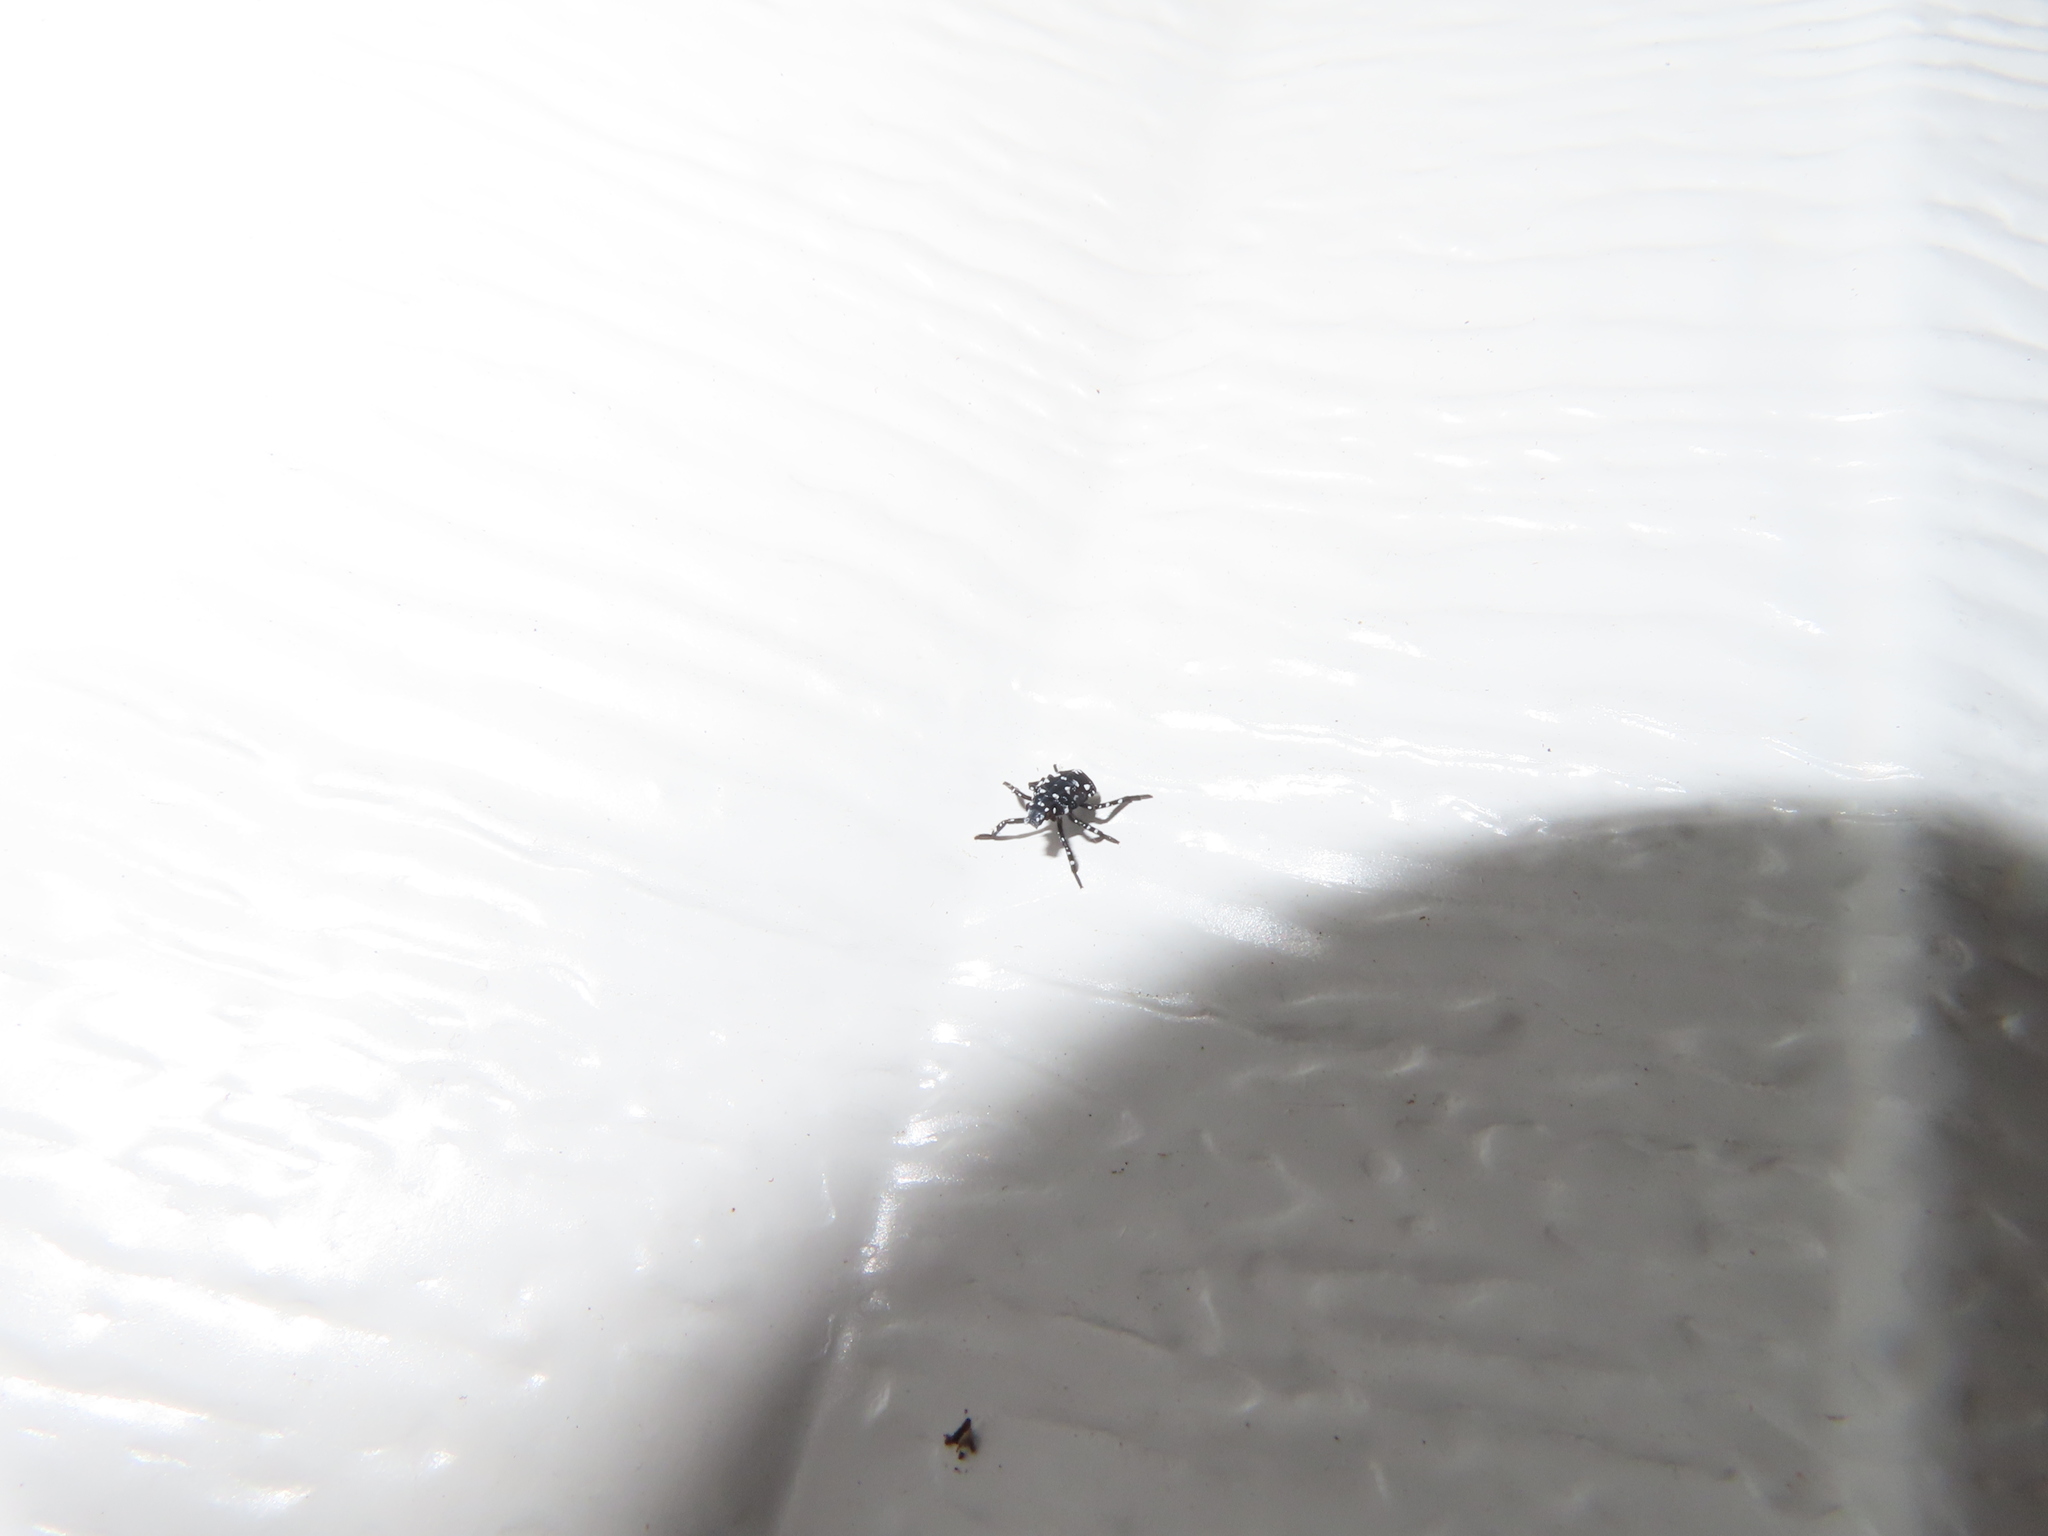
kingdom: Animalia
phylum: Arthropoda
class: Insecta
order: Hemiptera
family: Fulgoridae
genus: Lycorma
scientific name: Lycorma delicatula
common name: Spotted lanternfly
